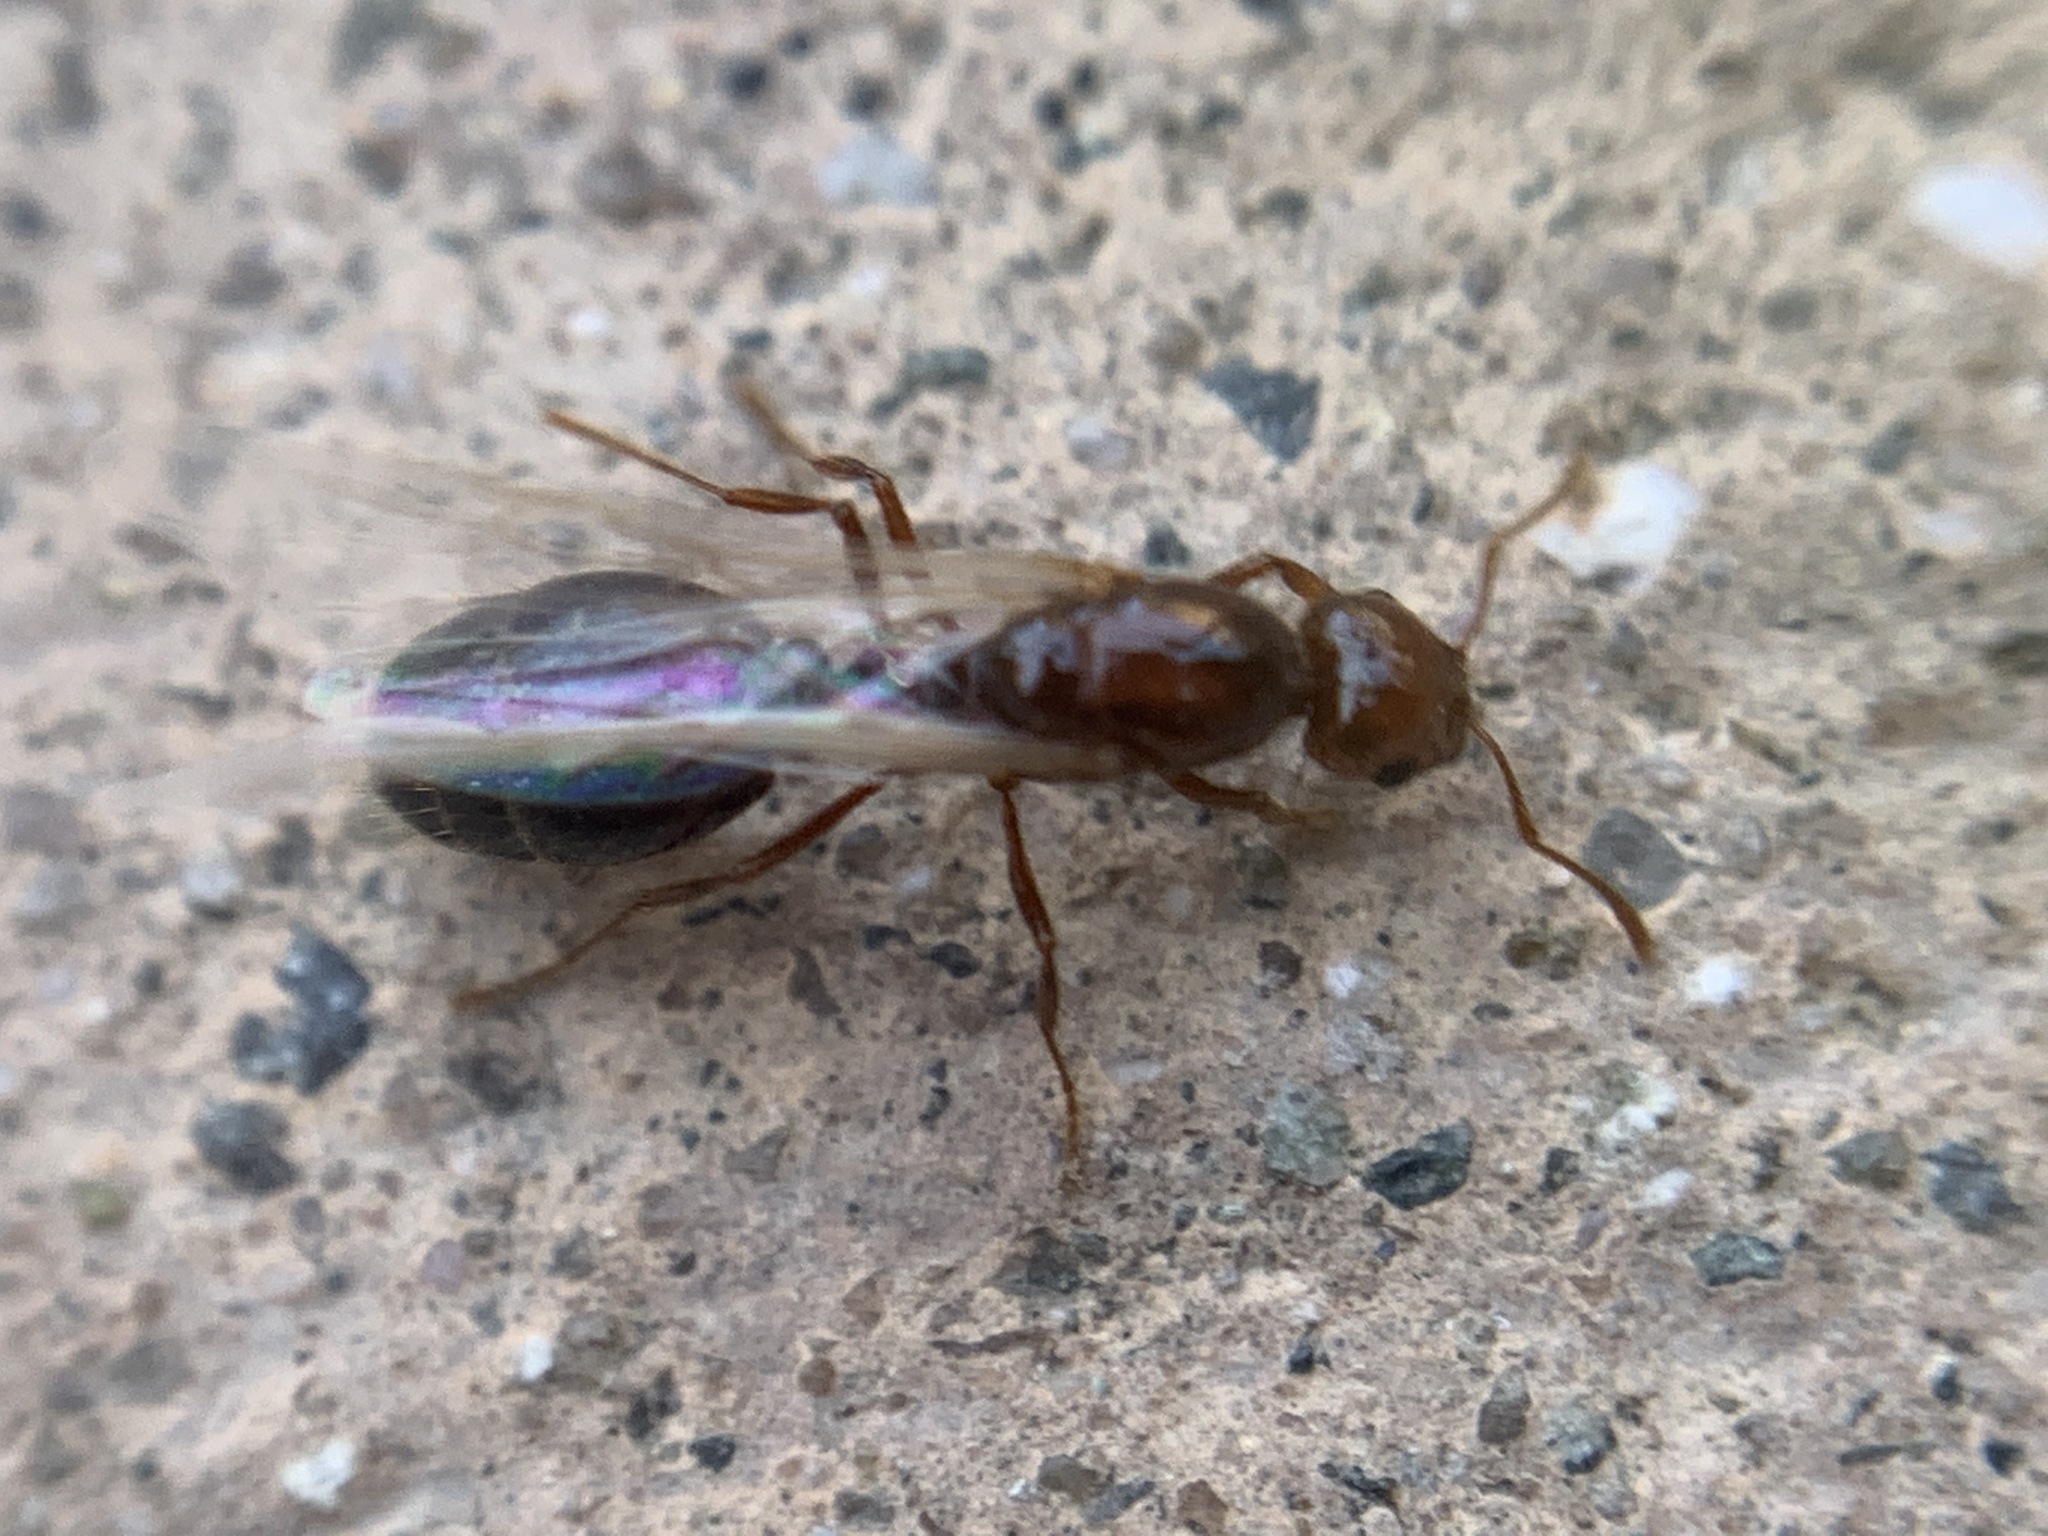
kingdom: Animalia
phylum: Arthropoda
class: Insecta
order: Hymenoptera
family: Formicidae
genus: Solenopsis
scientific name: Solenopsis invicta
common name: Red imported fire ant
